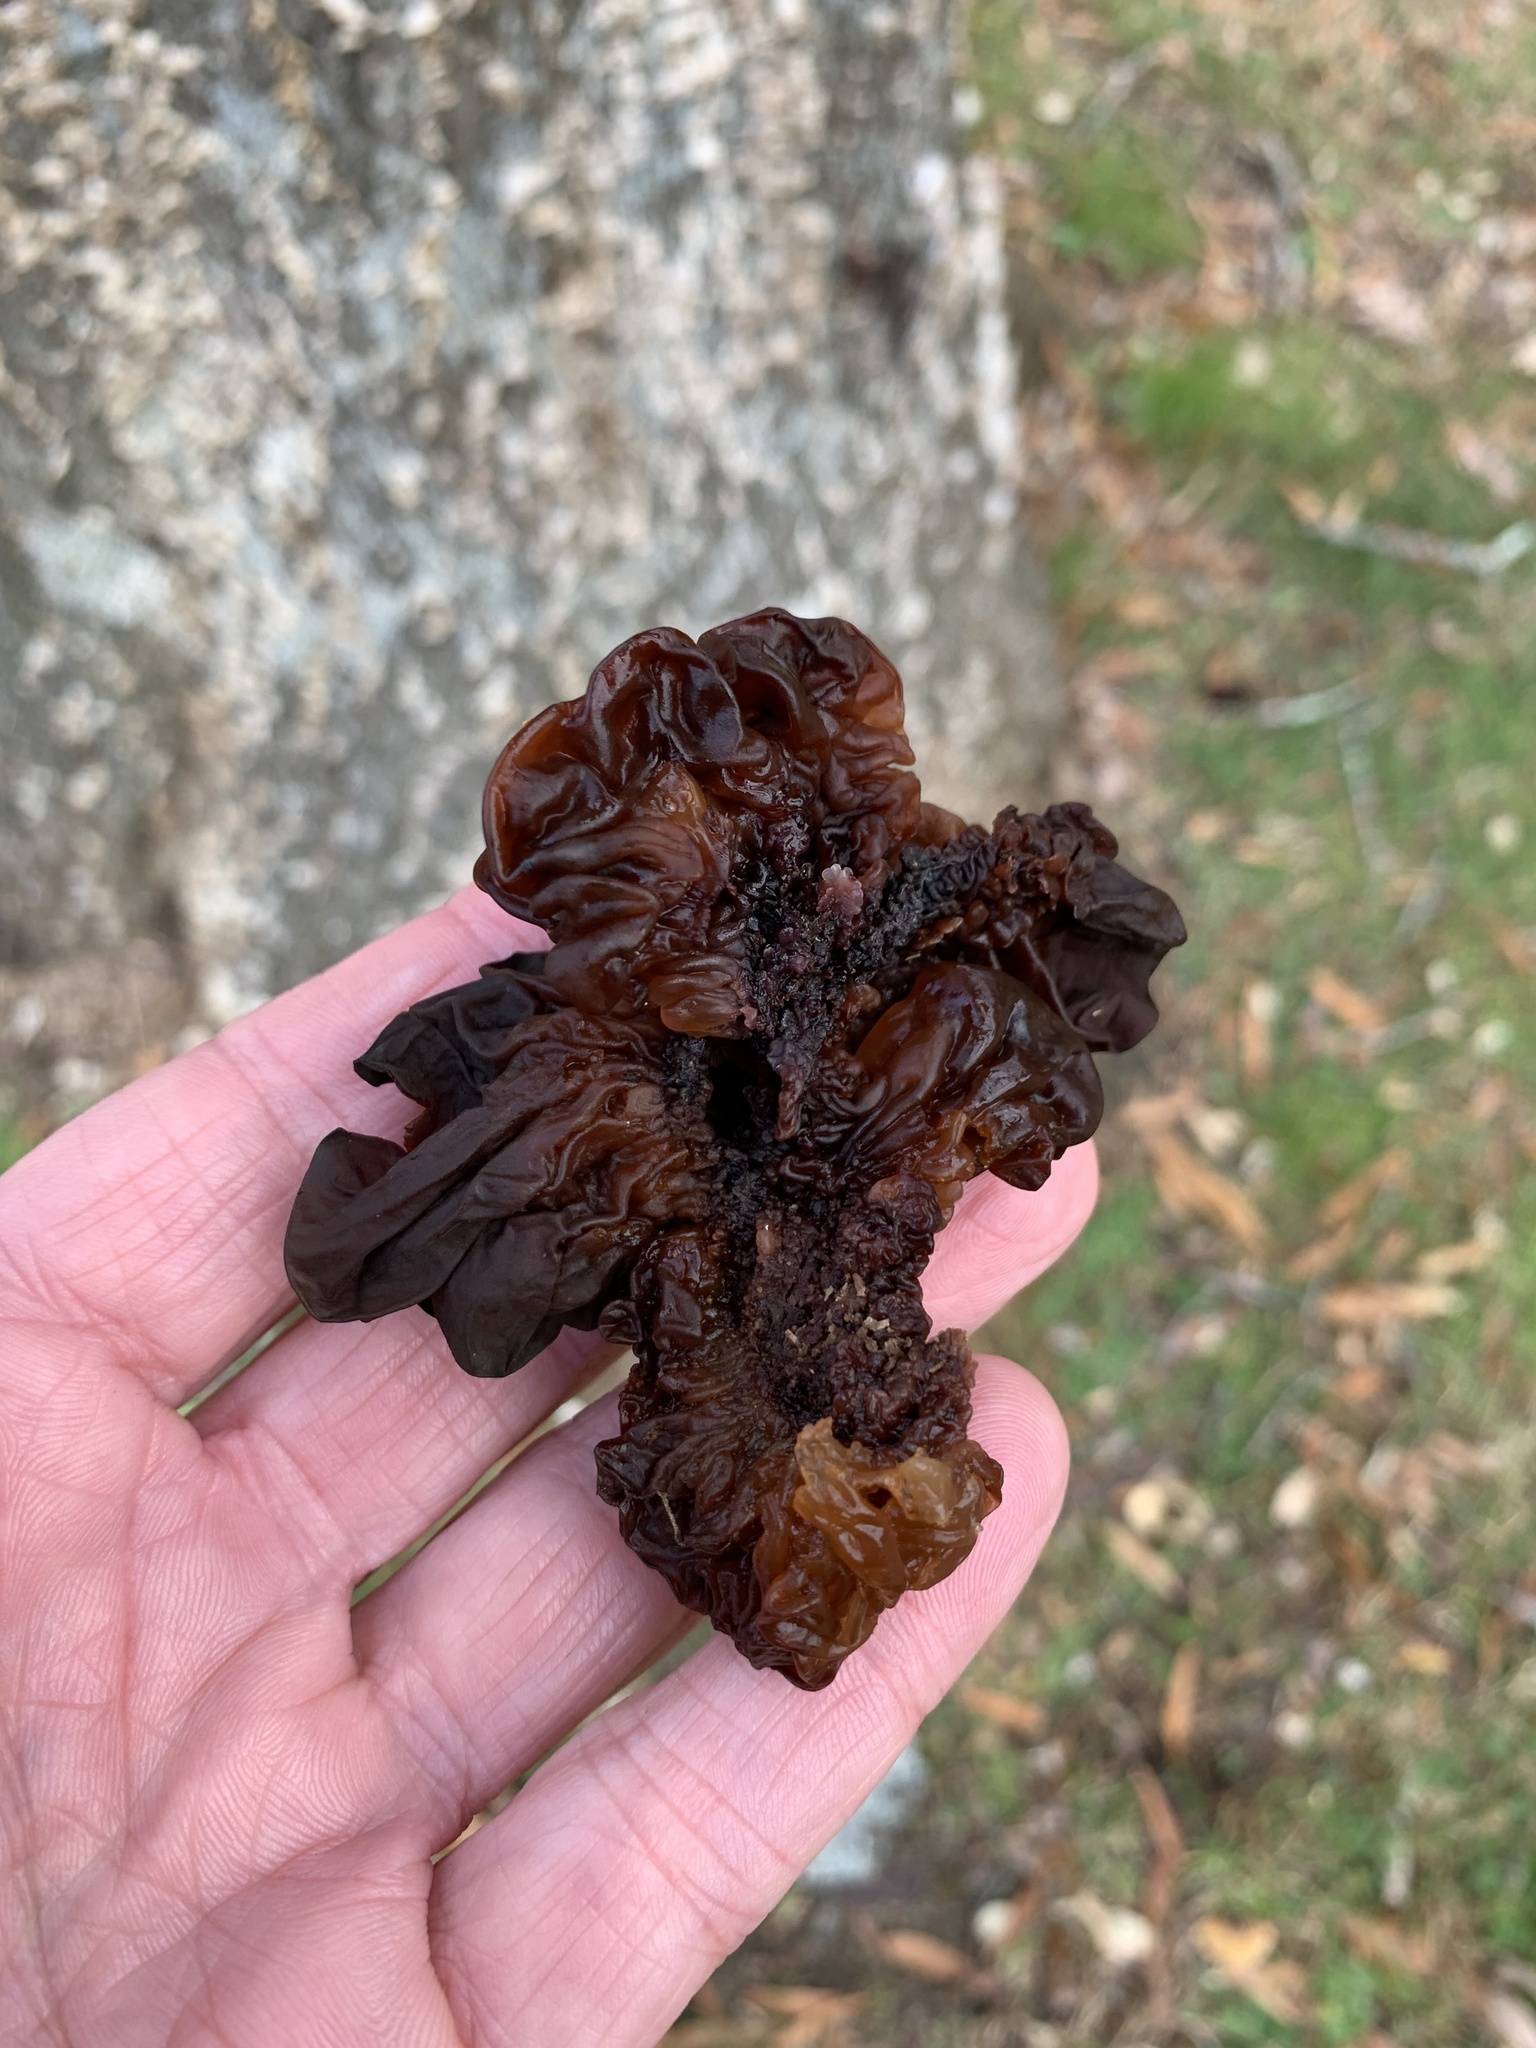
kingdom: Fungi
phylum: Basidiomycota
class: Tremellomycetes
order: Tremellales
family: Tremellaceae
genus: Phaeotremella
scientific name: Phaeotremella foliacea
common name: Leafy brain
